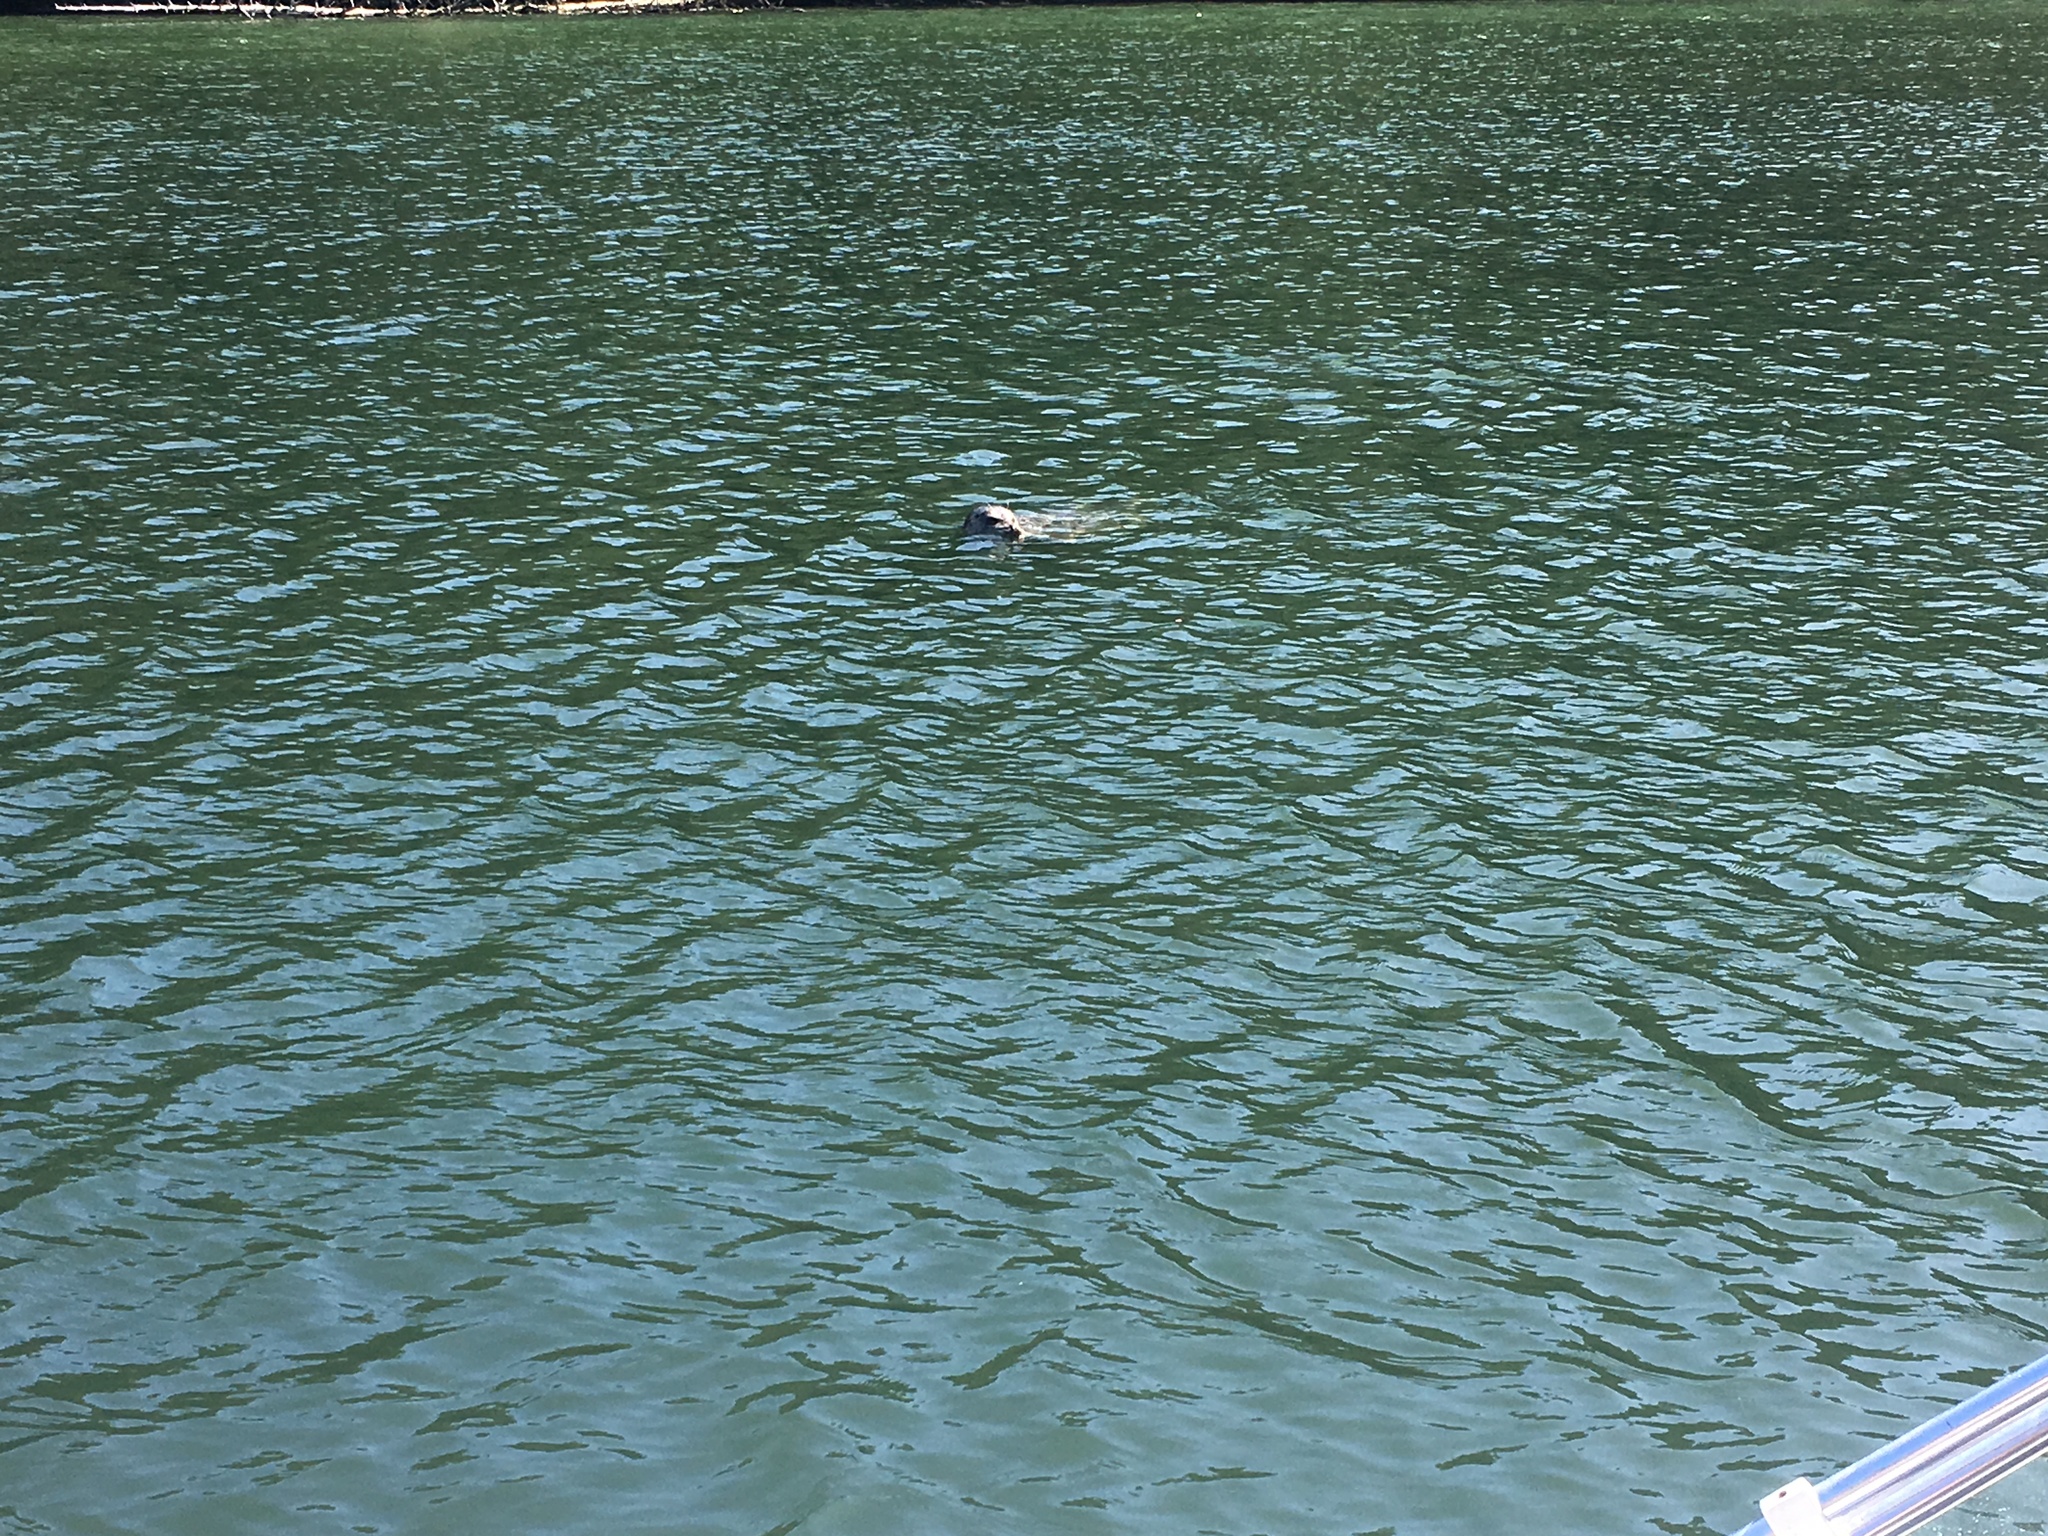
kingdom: Animalia
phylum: Chordata
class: Mammalia
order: Carnivora
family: Phocidae
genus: Phoca
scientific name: Phoca vitulina
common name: Harbor seal
